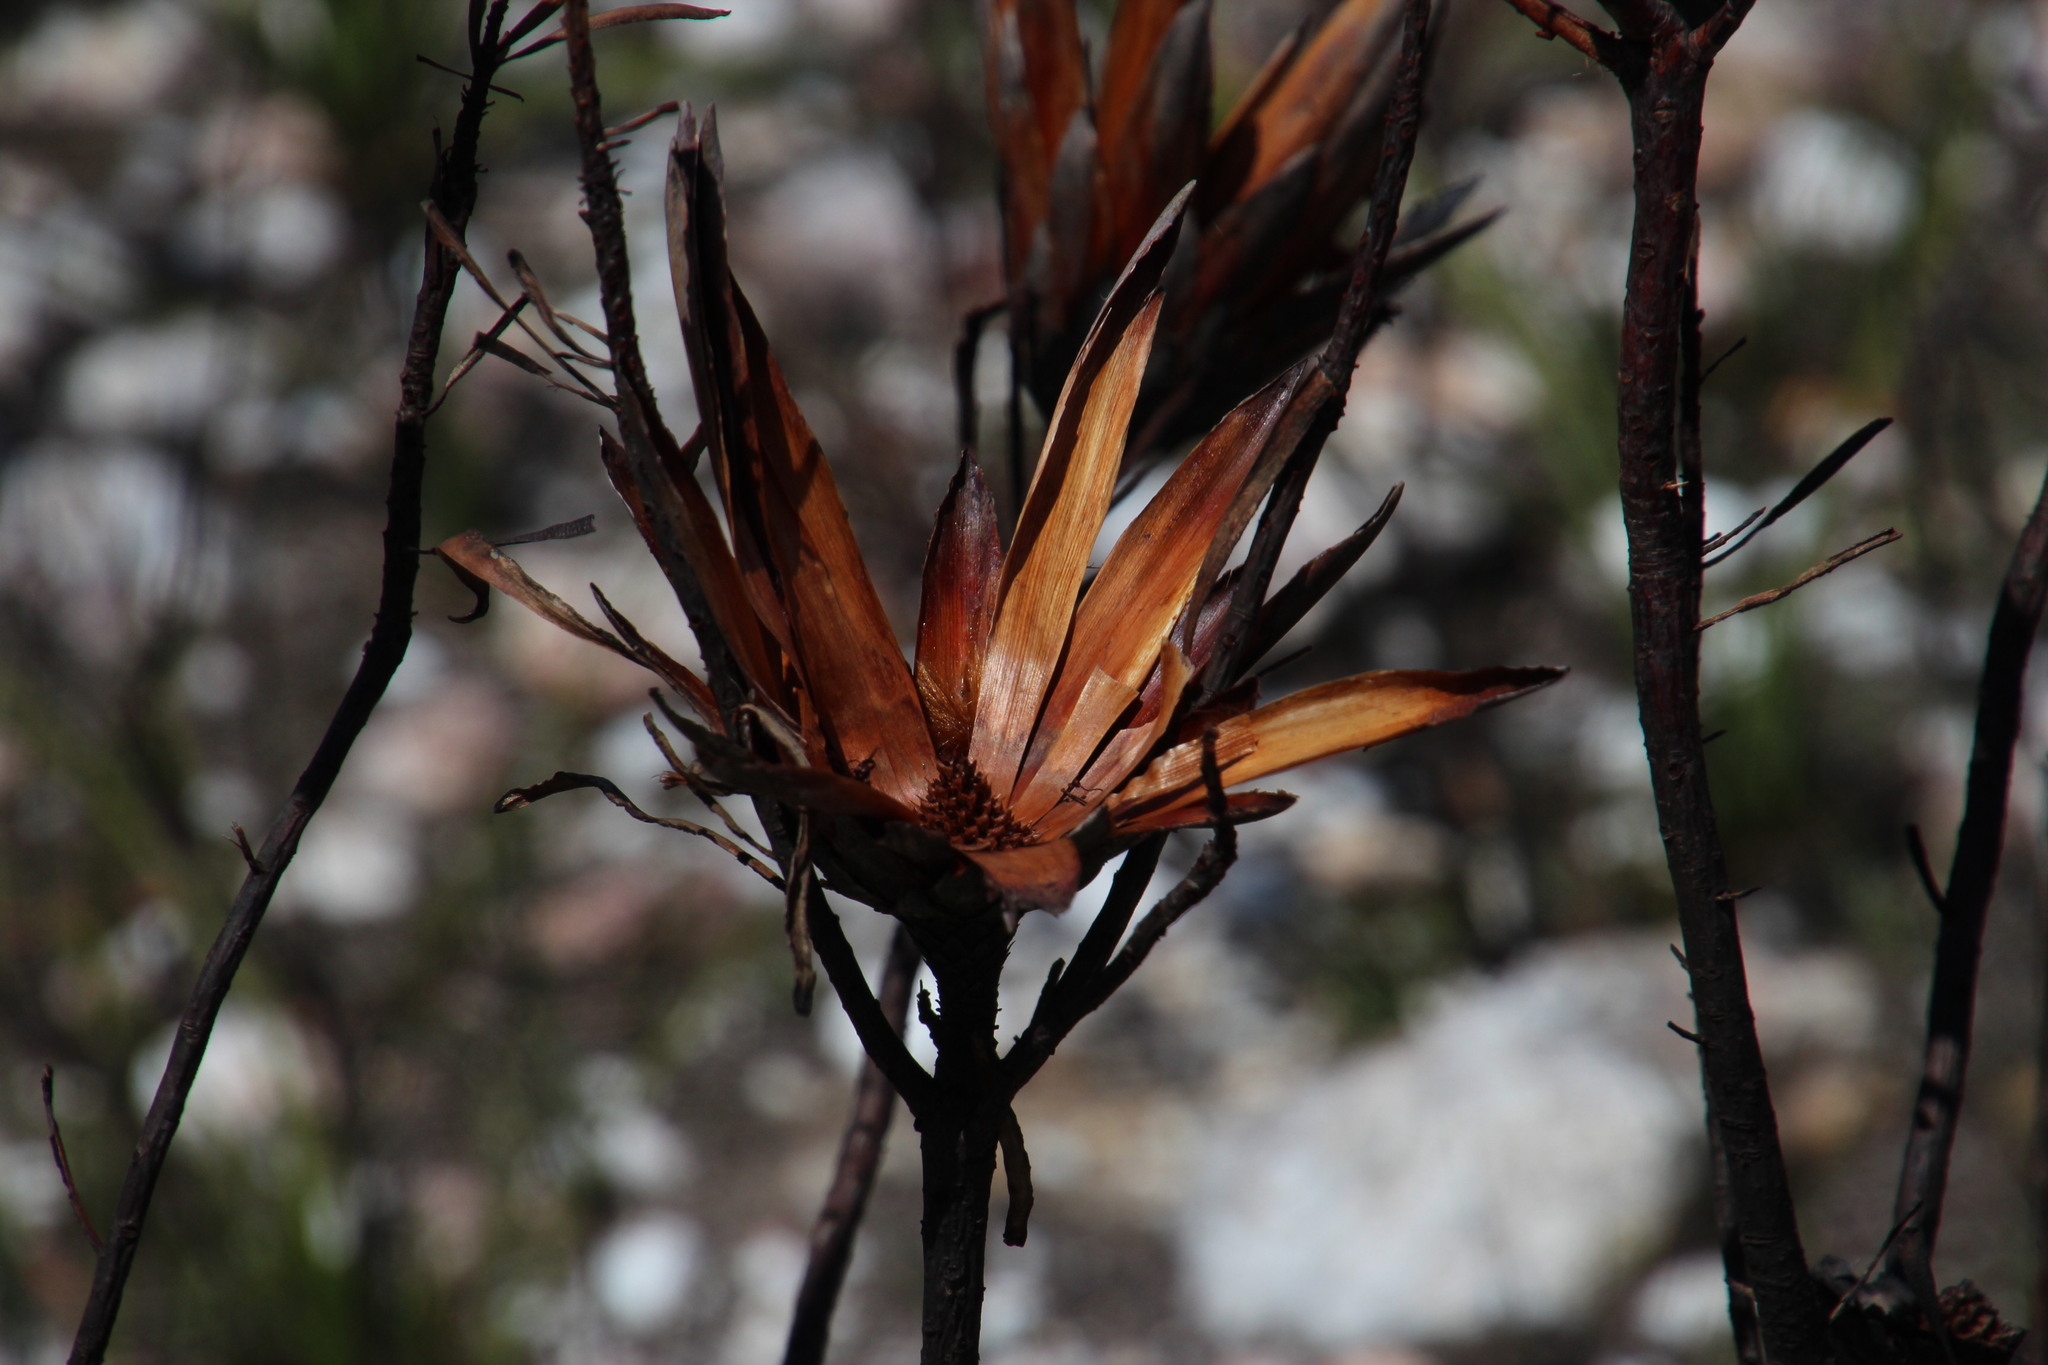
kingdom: Plantae
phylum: Tracheophyta
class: Magnoliopsida
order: Proteales
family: Proteaceae
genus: Protea
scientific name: Protea repens
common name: Sugarbush
